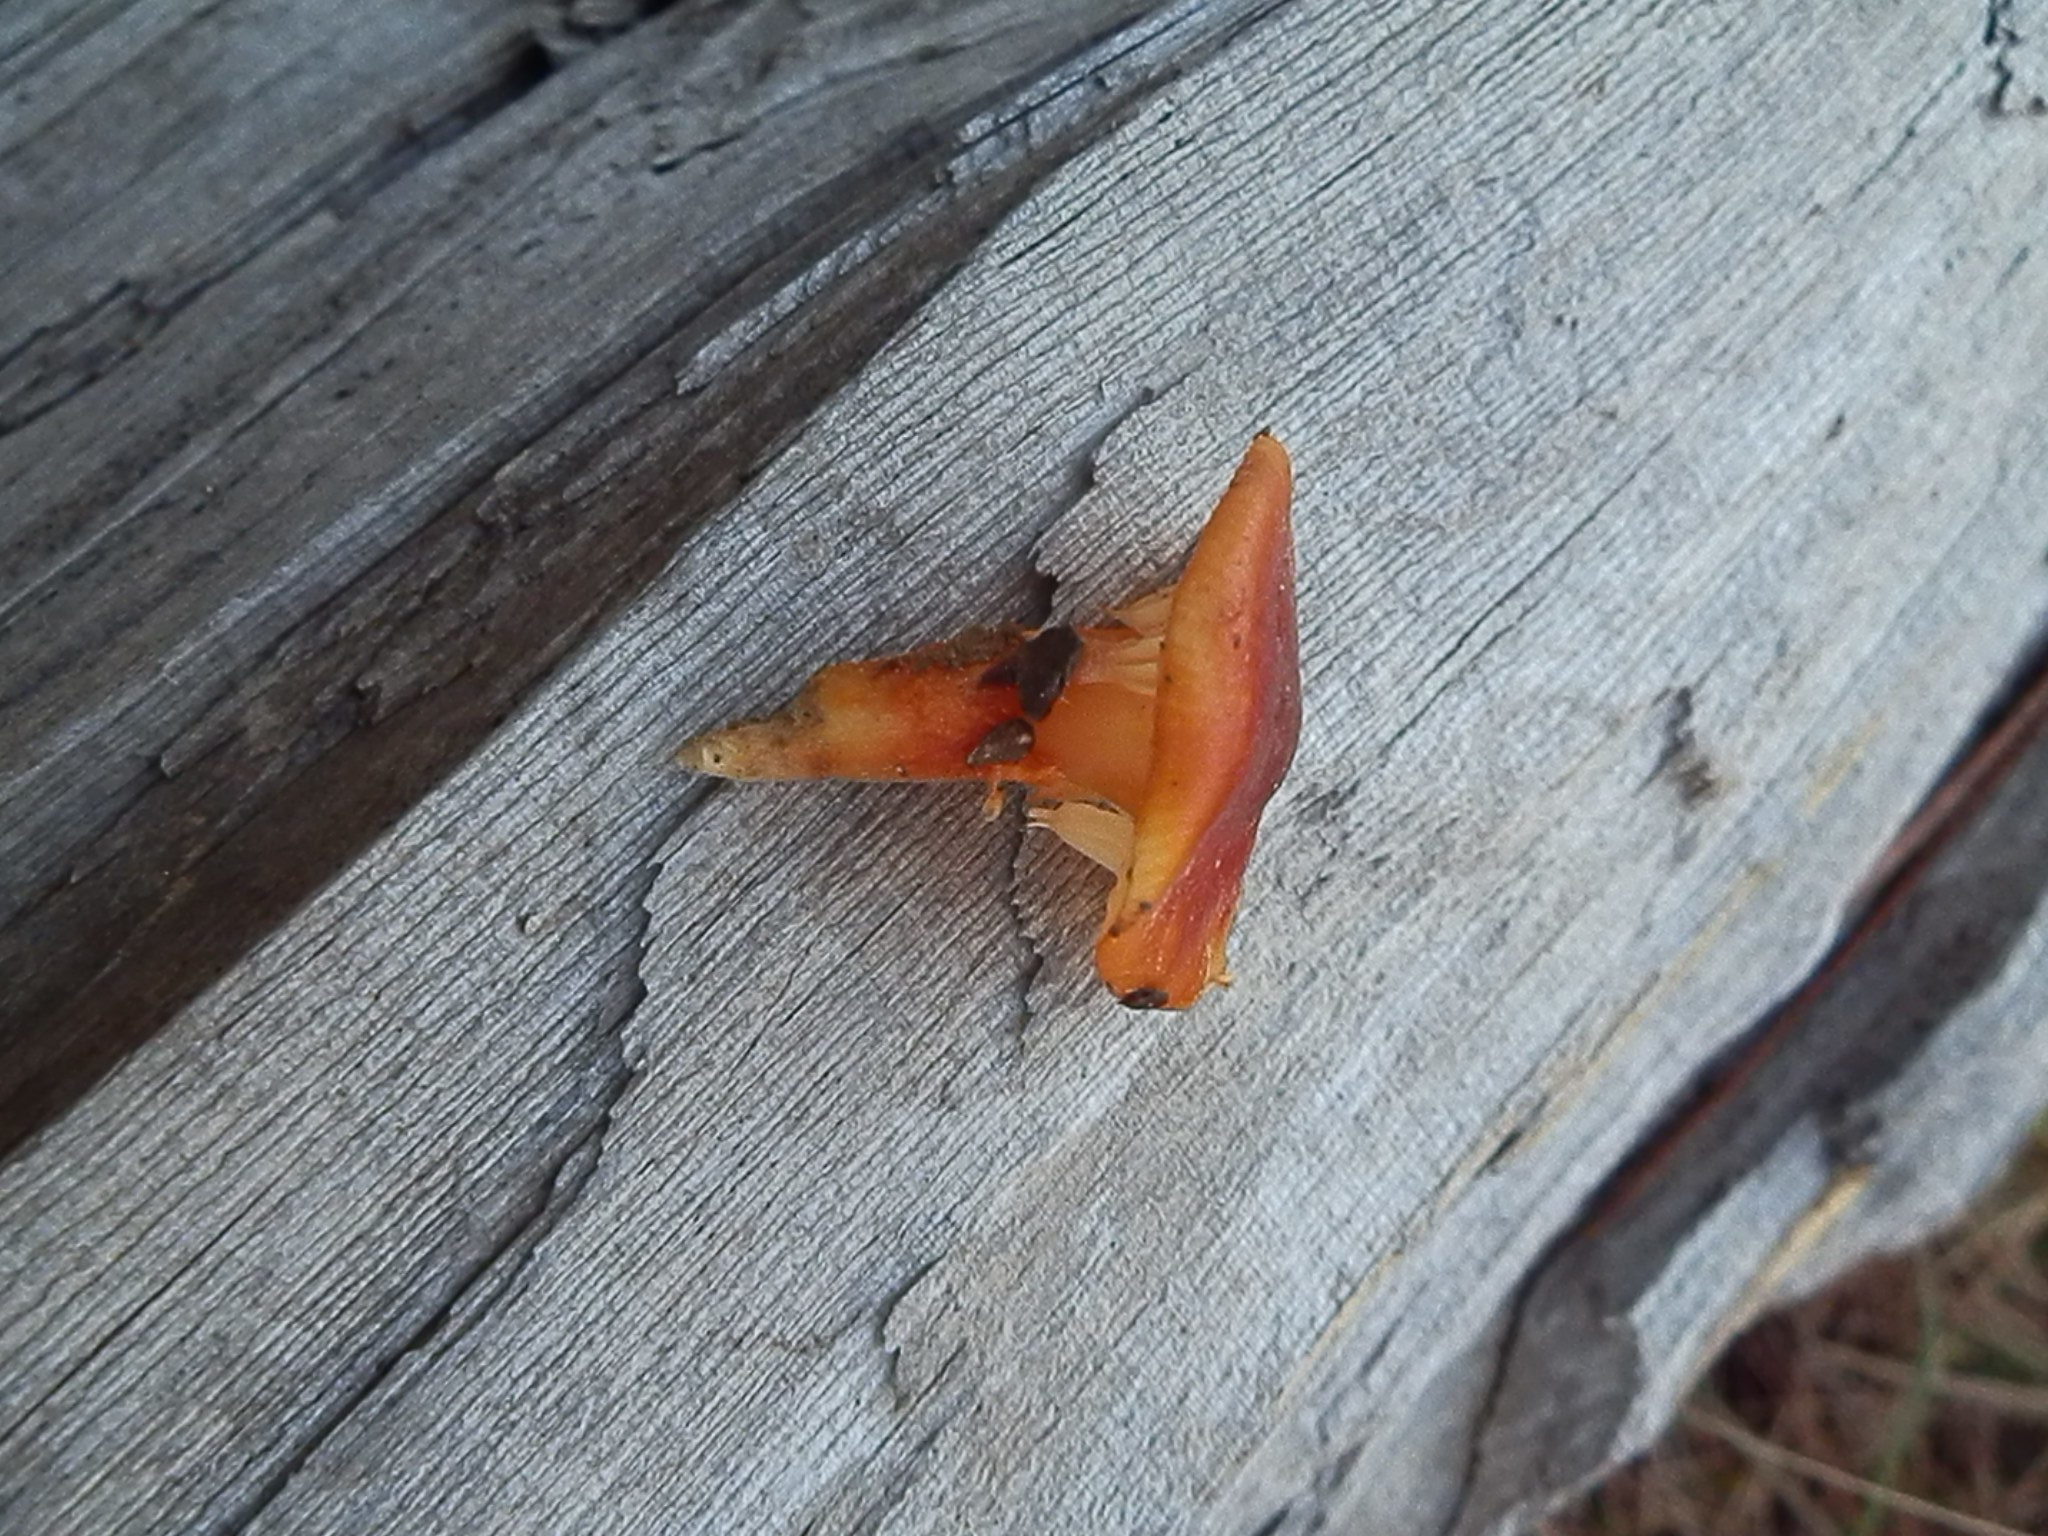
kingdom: Fungi
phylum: Basidiomycota
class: Agaricomycetes
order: Agaricales
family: Hygrophoraceae
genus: Hygrophorus
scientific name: Hygrophorus siccipes
